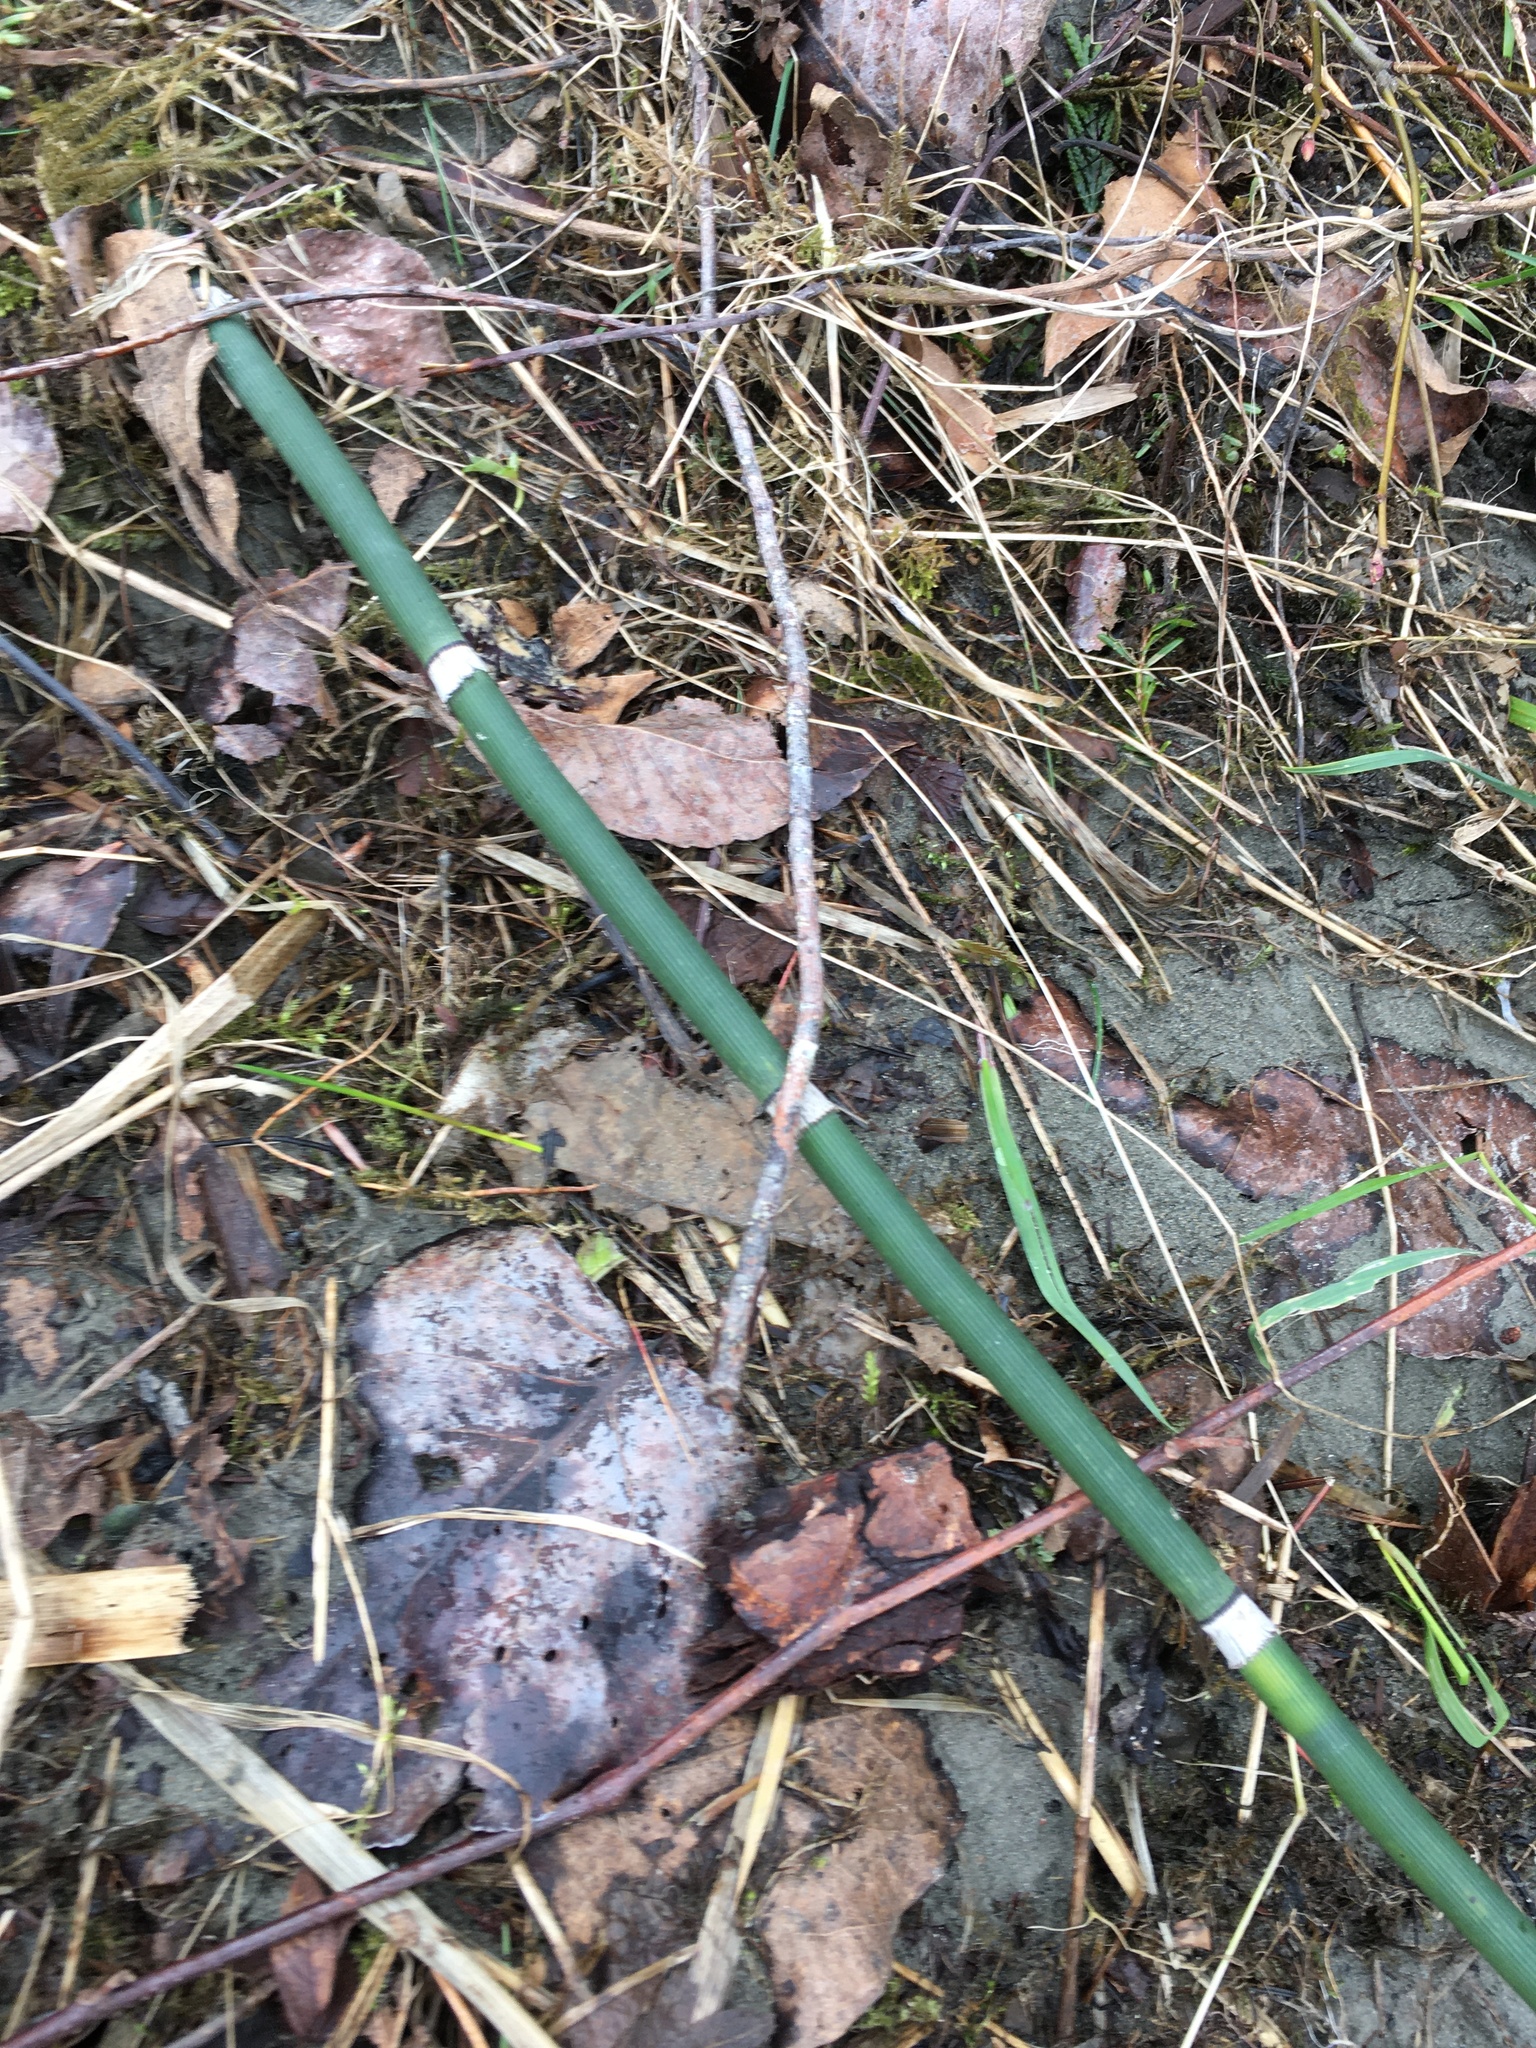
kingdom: Plantae
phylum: Tracheophyta
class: Polypodiopsida
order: Equisetales
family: Equisetaceae
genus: Equisetum
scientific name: Equisetum praealtum
